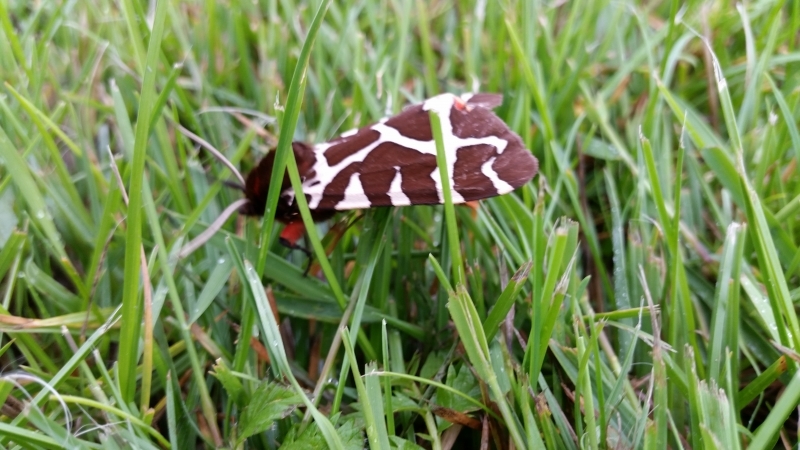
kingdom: Animalia
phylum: Arthropoda
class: Insecta
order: Lepidoptera
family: Erebidae
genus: Arctia
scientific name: Arctia caja
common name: Garden tiger
